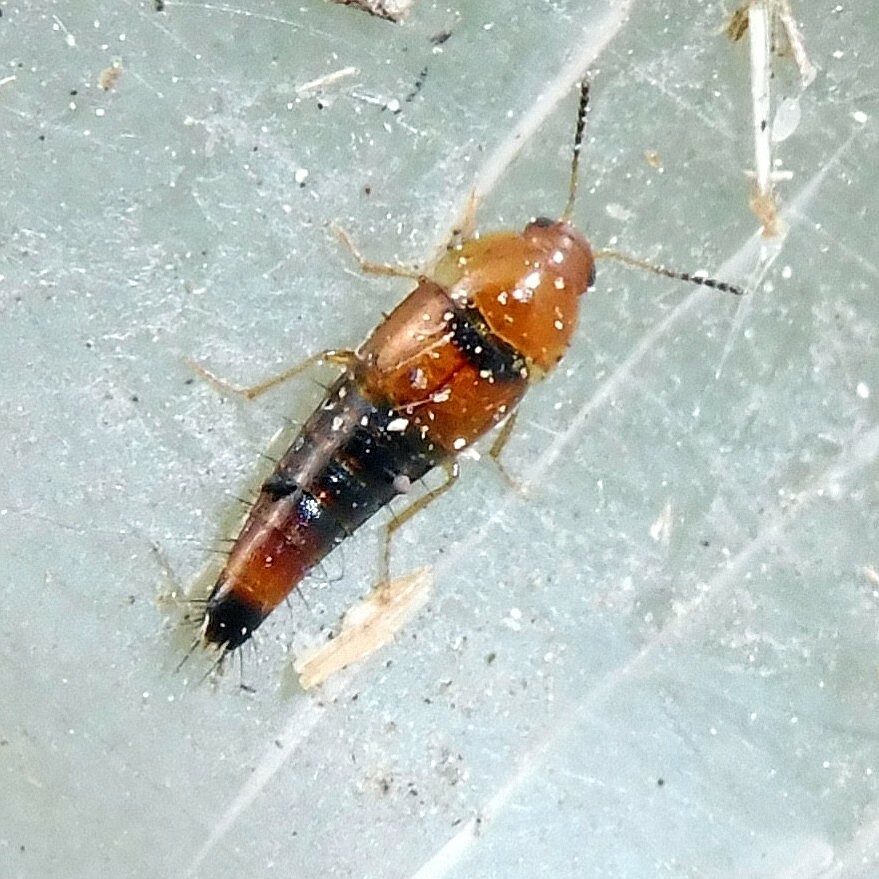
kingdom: Animalia
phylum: Arthropoda
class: Insecta
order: Coleoptera
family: Staphylinidae
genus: Tachyporus
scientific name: Tachyporus formosus
